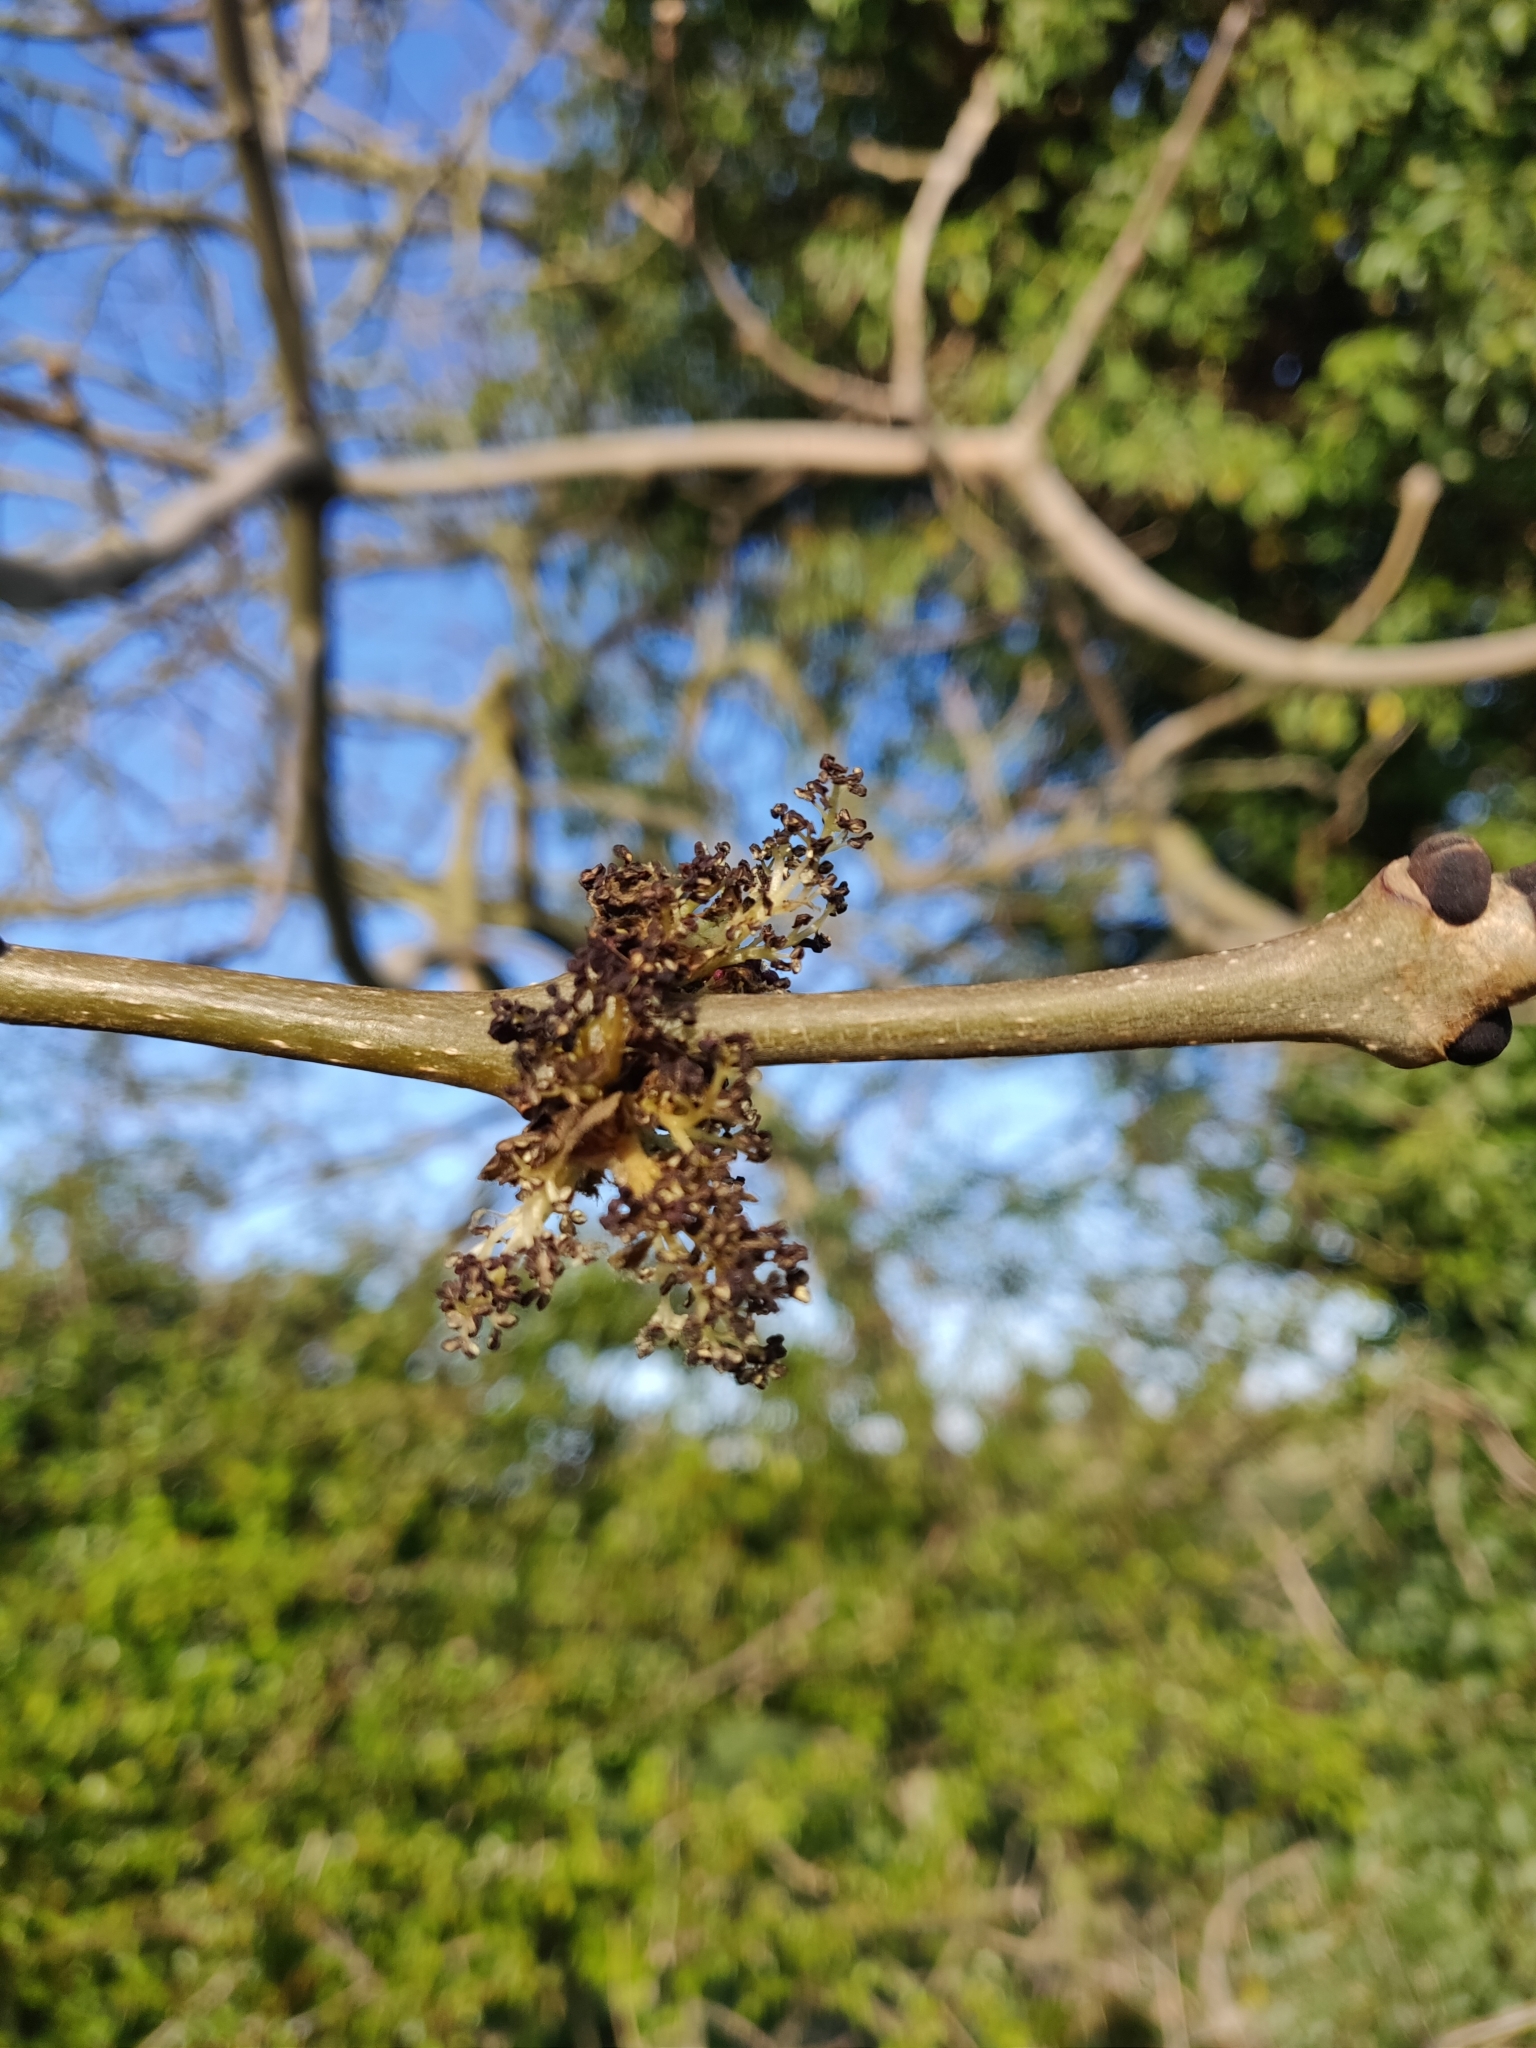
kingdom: Plantae
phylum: Tracheophyta
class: Magnoliopsida
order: Lamiales
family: Oleaceae
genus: Fraxinus
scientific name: Fraxinus excelsior
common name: European ash
